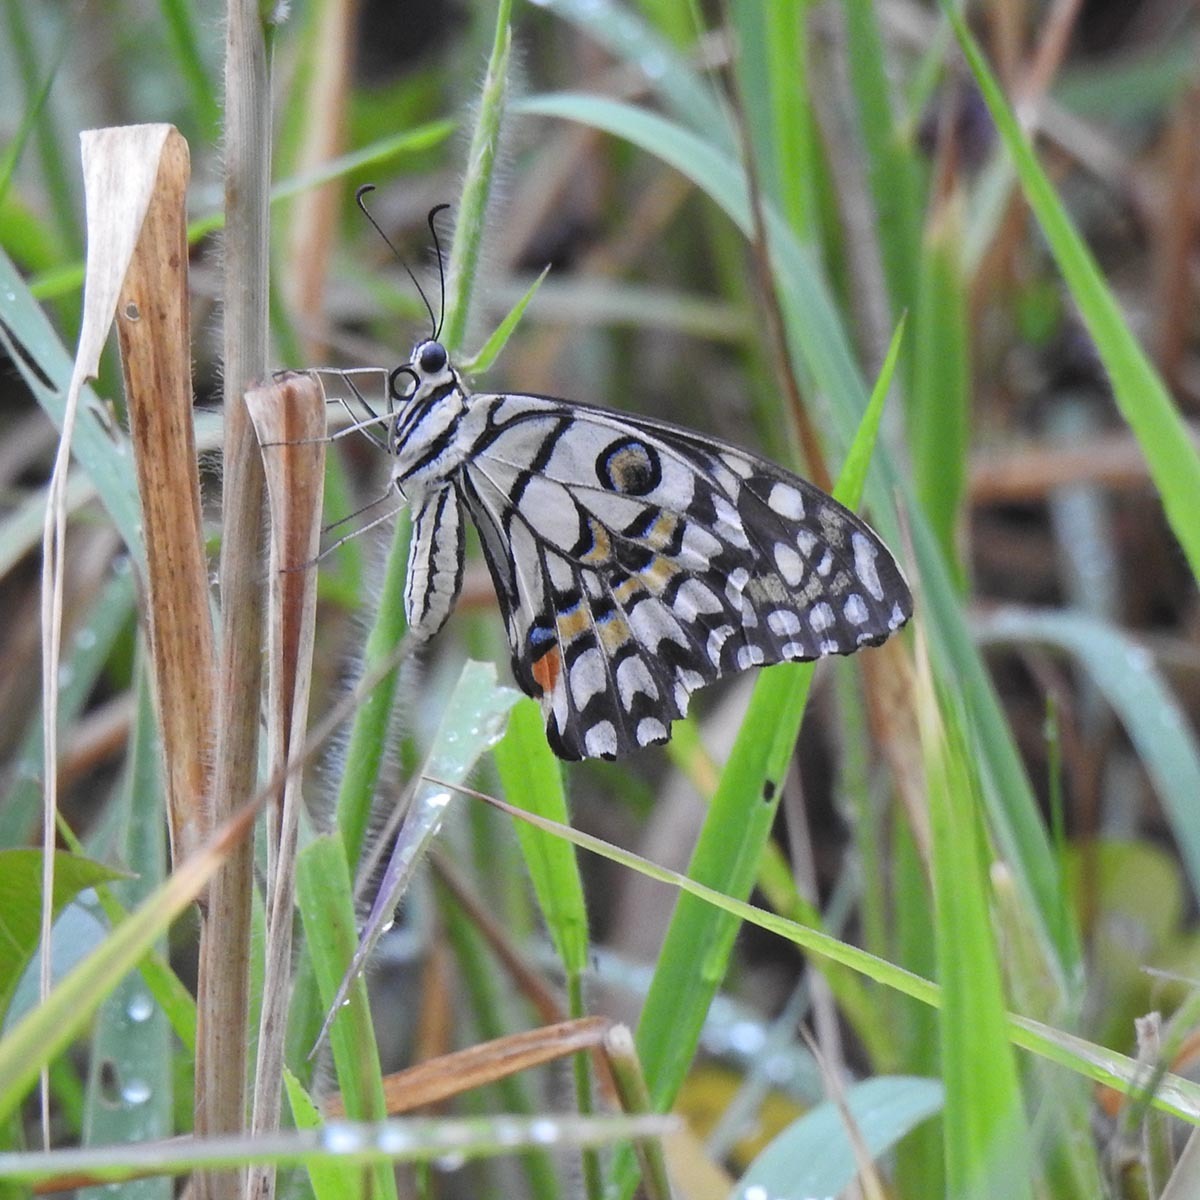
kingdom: Animalia
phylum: Arthropoda
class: Insecta
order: Lepidoptera
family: Papilionidae
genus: Papilio
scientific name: Papilio demoleus
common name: Lime butterfly
